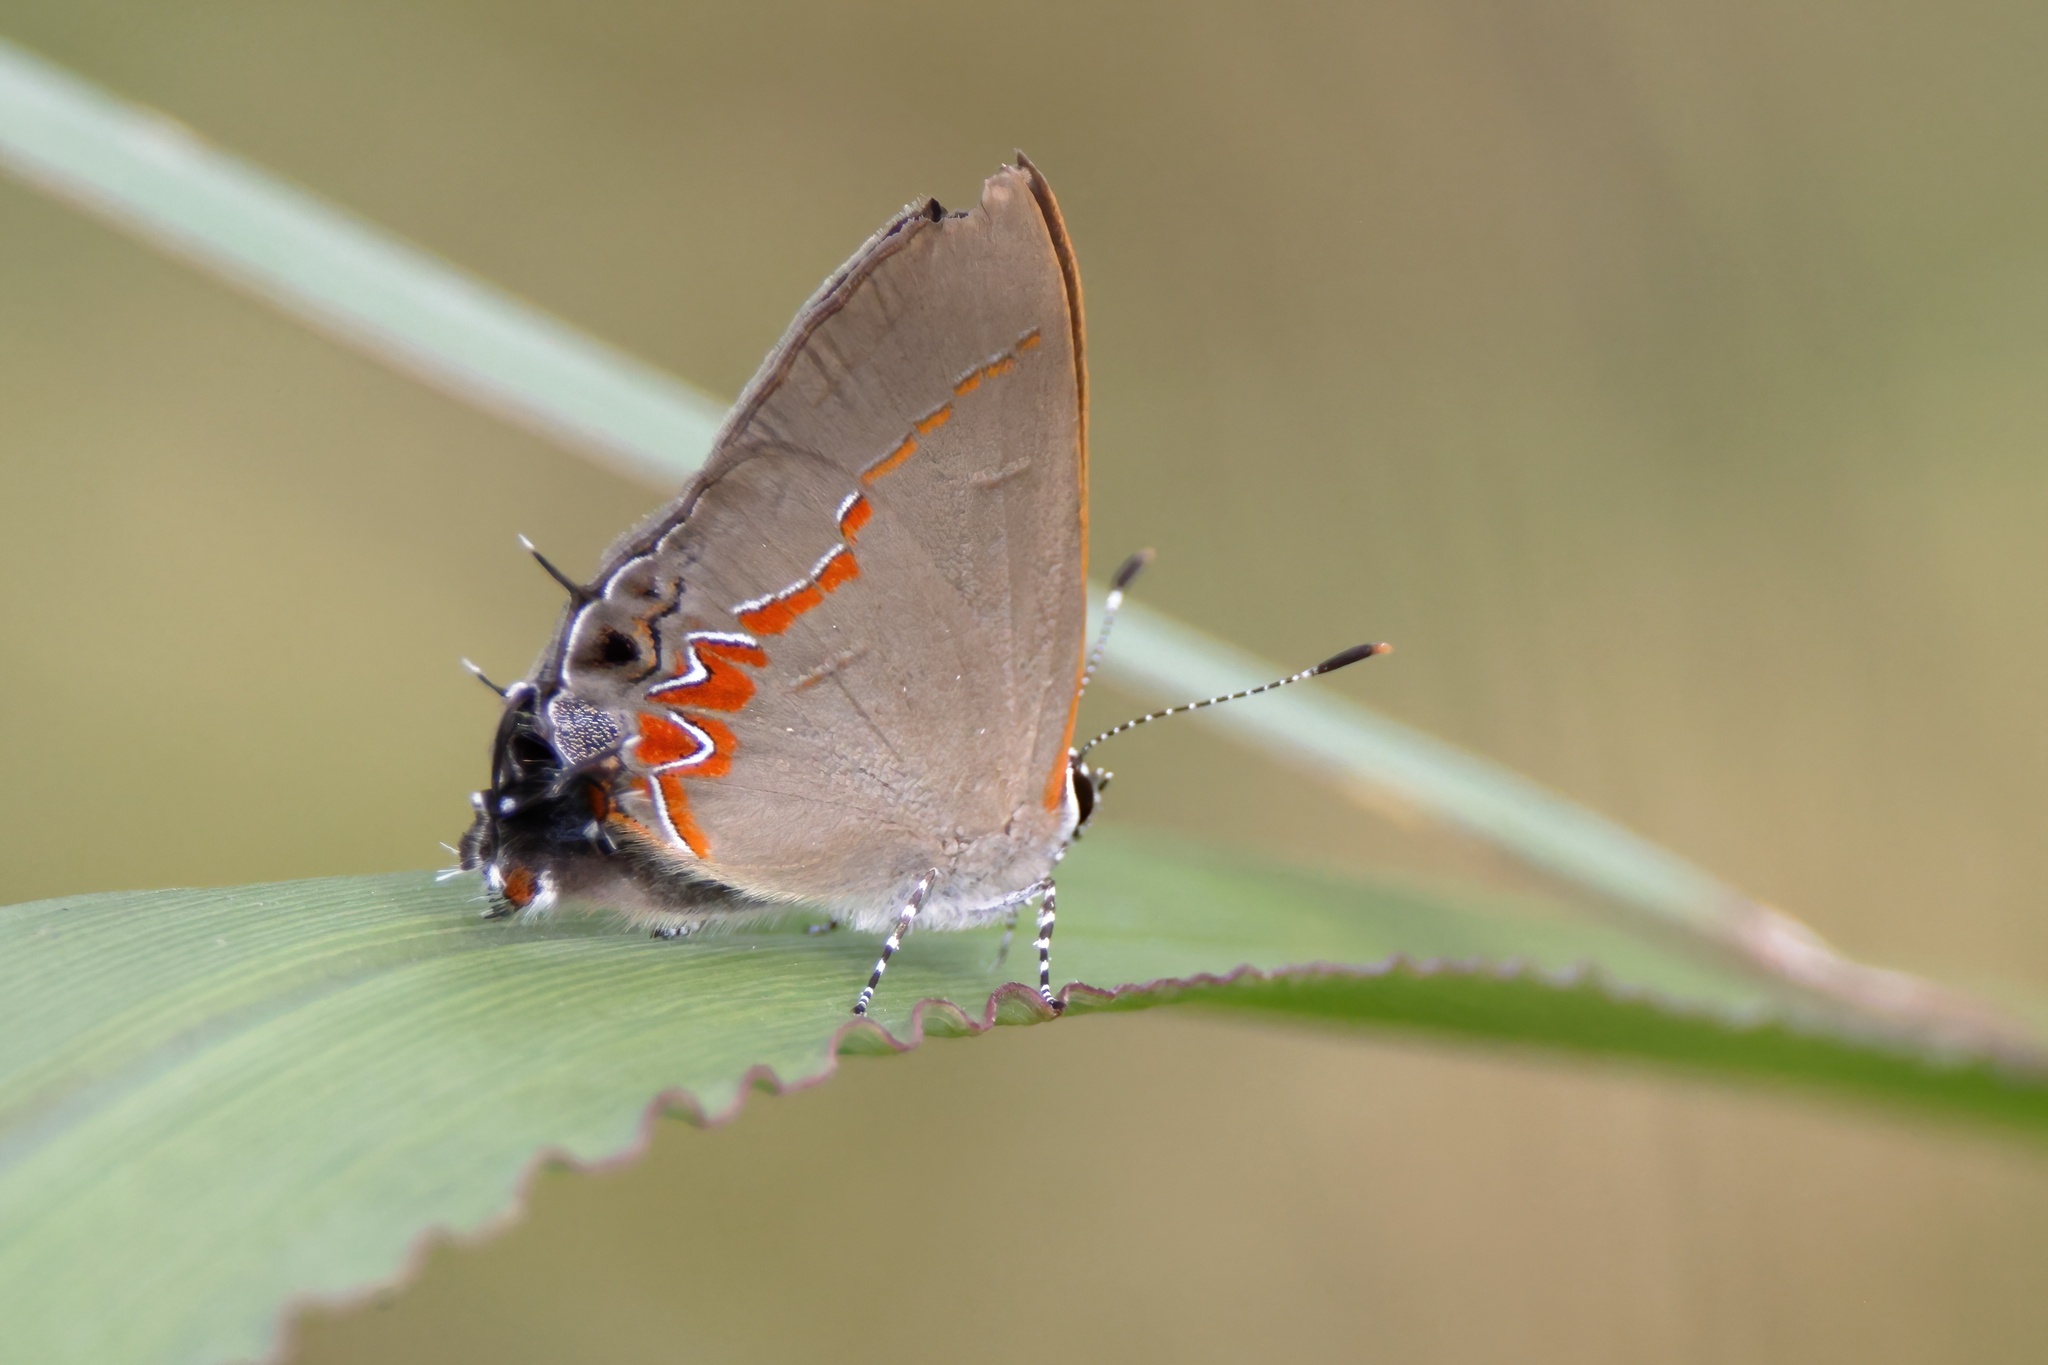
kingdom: Animalia
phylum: Arthropoda
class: Insecta
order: Lepidoptera
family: Lycaenidae
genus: Calycopis
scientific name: Calycopis cecrops
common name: Red-banded hairstreak
